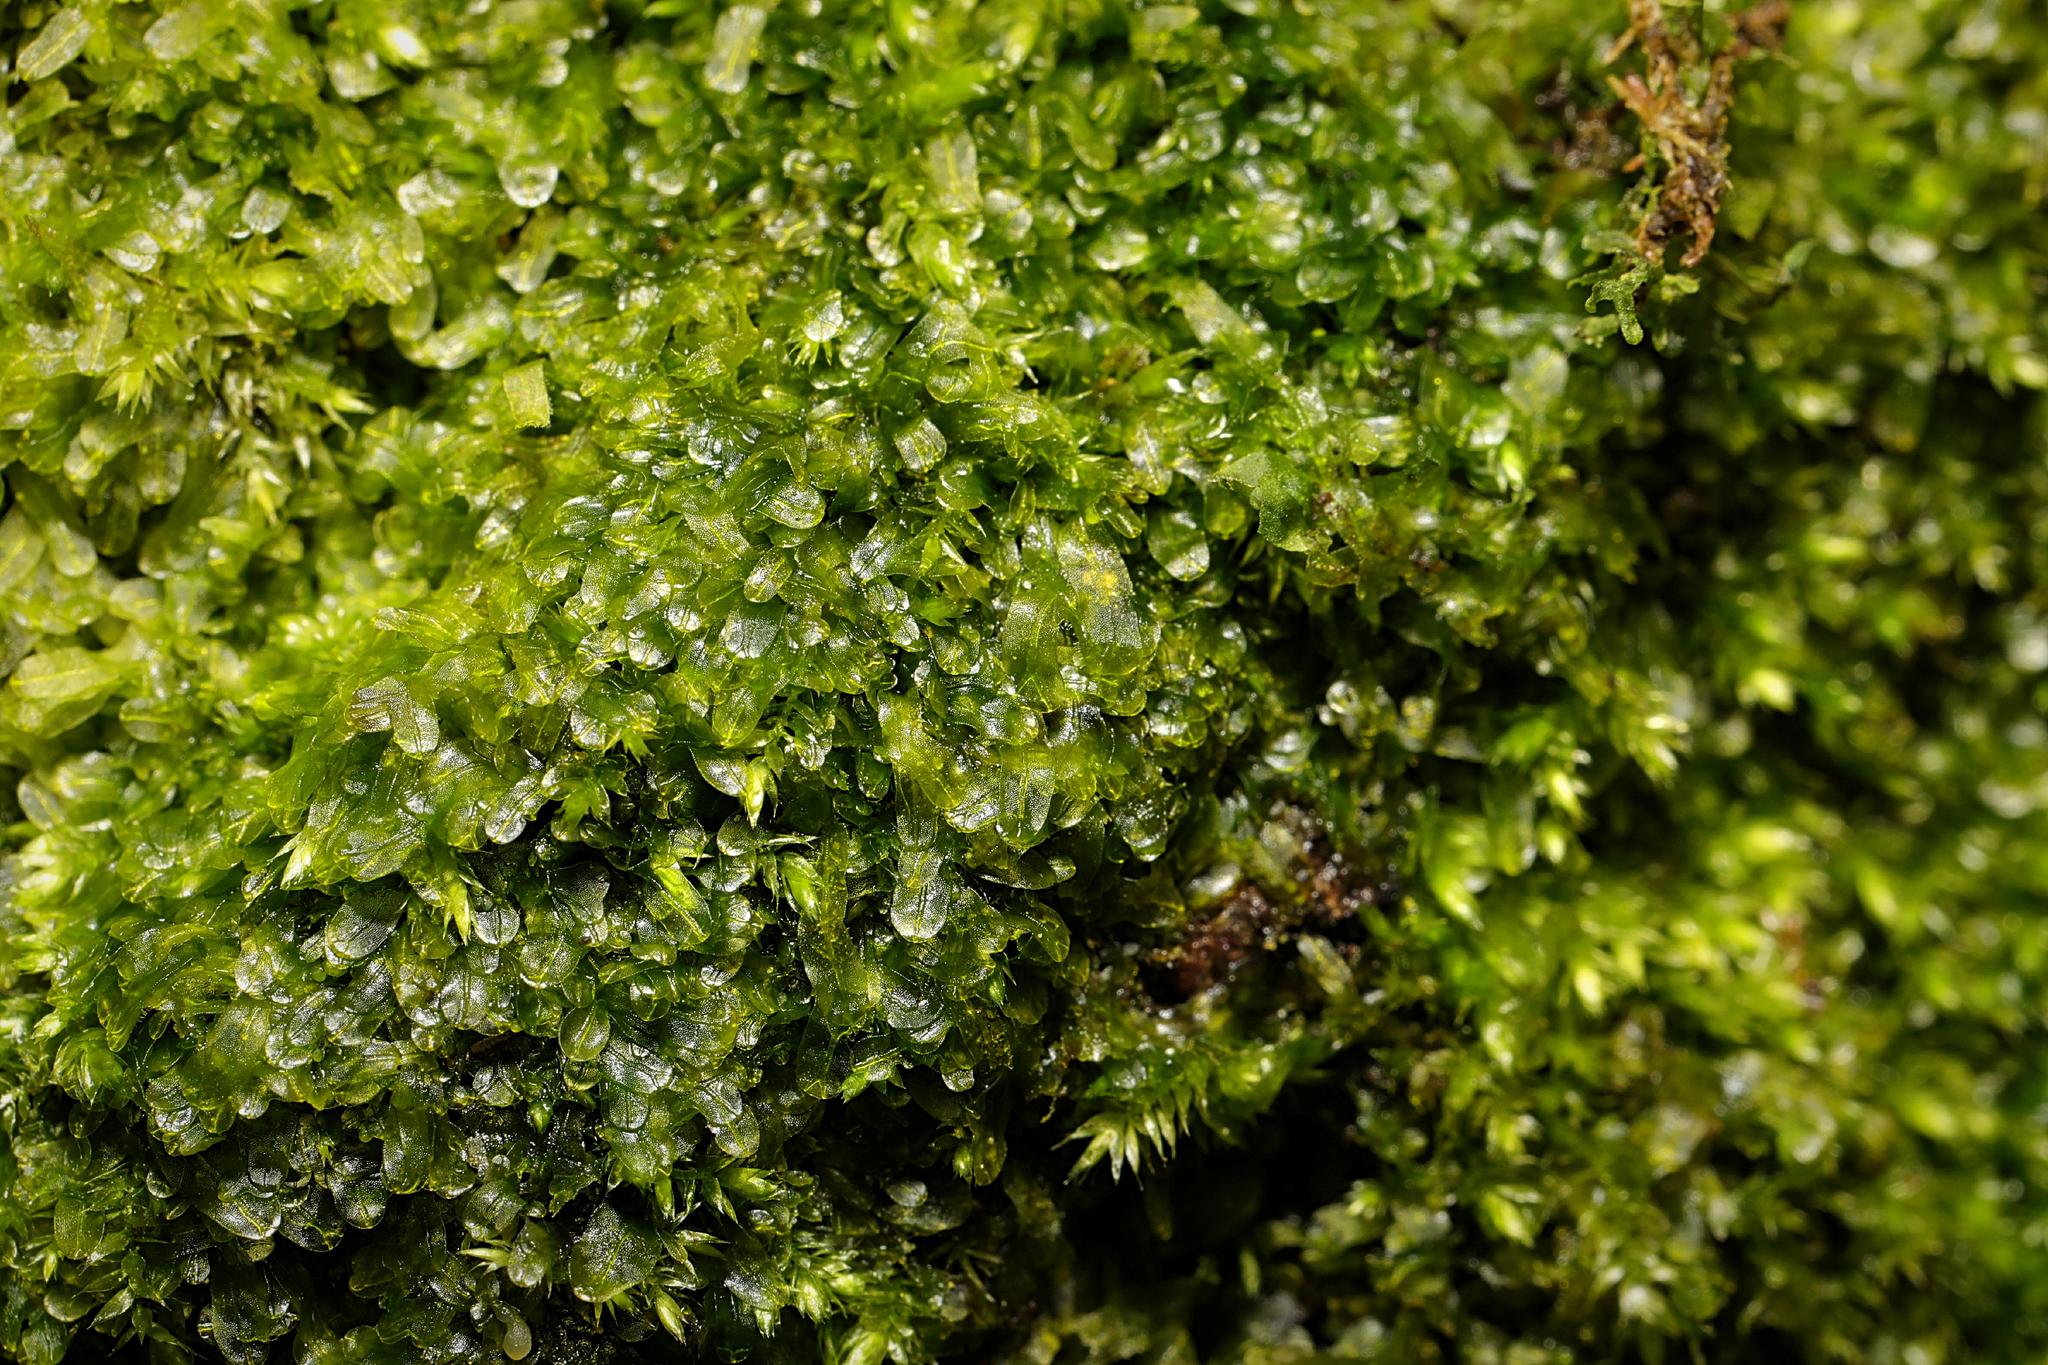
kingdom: Plantae
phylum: Marchantiophyta
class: Jungermanniopsida
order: Metzgeriales
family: Metzgeriaceae
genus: Metzgeria
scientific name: Metzgeria furcata
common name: Forked veilwort
